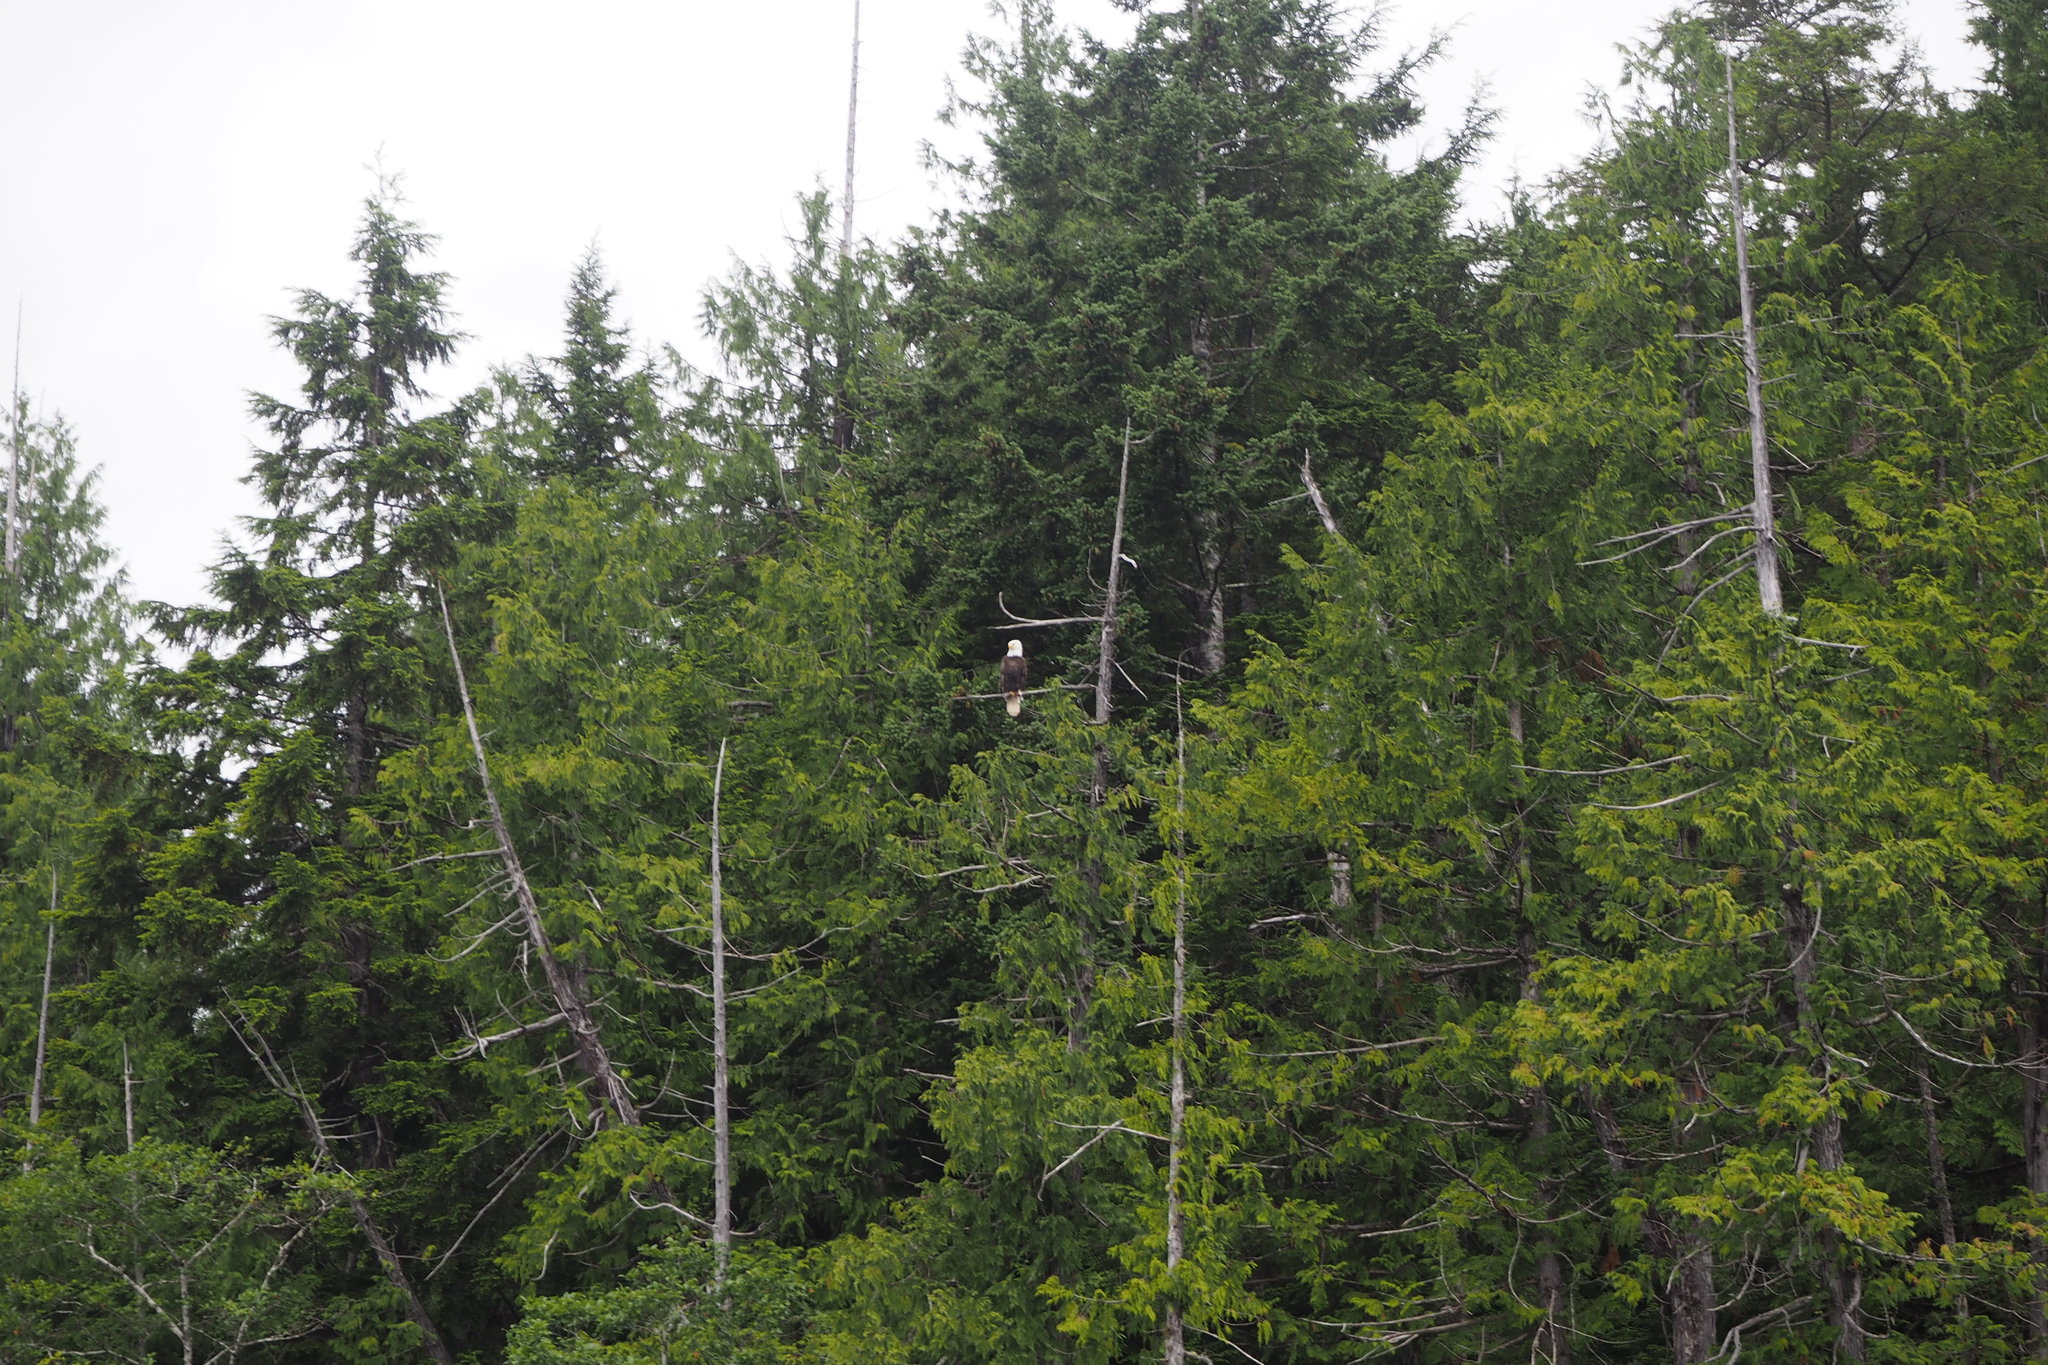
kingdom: Animalia
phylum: Chordata
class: Aves
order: Accipitriformes
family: Accipitridae
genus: Haliaeetus
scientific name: Haliaeetus leucocephalus
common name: Bald eagle
